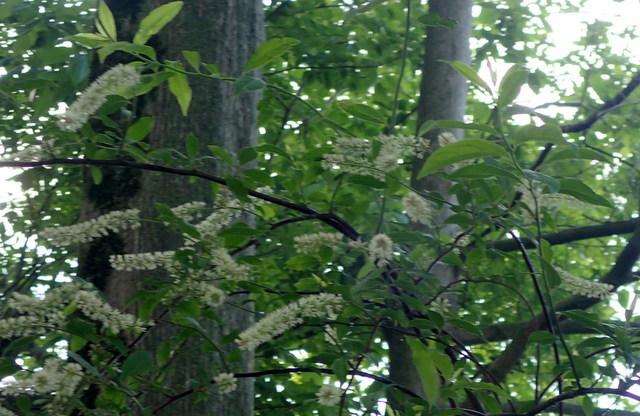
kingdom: Plantae
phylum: Tracheophyta
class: Magnoliopsida
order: Saxifragales
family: Iteaceae
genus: Itea
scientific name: Itea virginica
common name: Sweetspire
